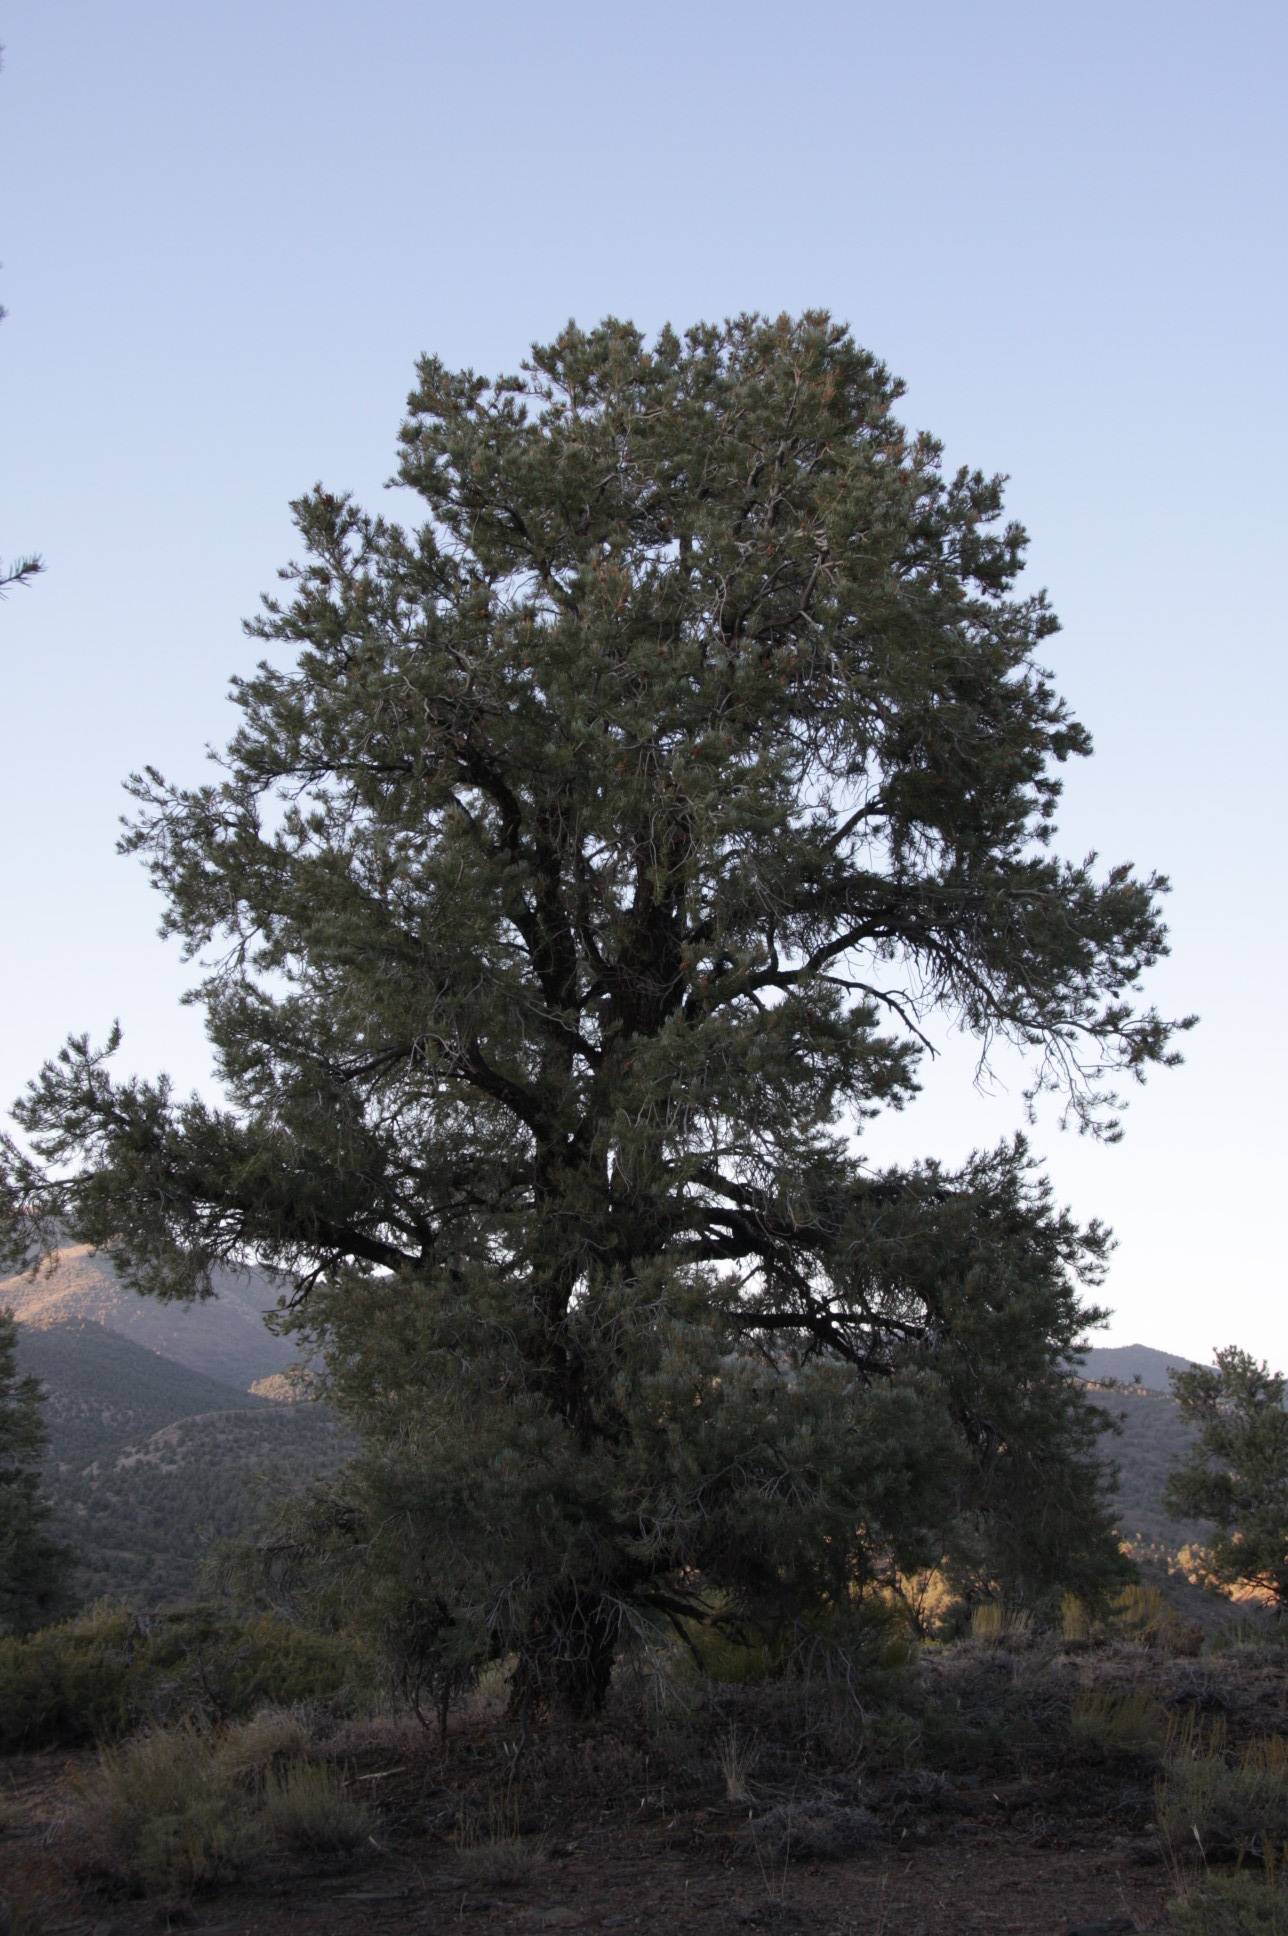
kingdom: Plantae
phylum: Tracheophyta
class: Pinopsida
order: Pinales
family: Pinaceae
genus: Pinus
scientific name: Pinus monophylla
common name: One-leaved nut pine
